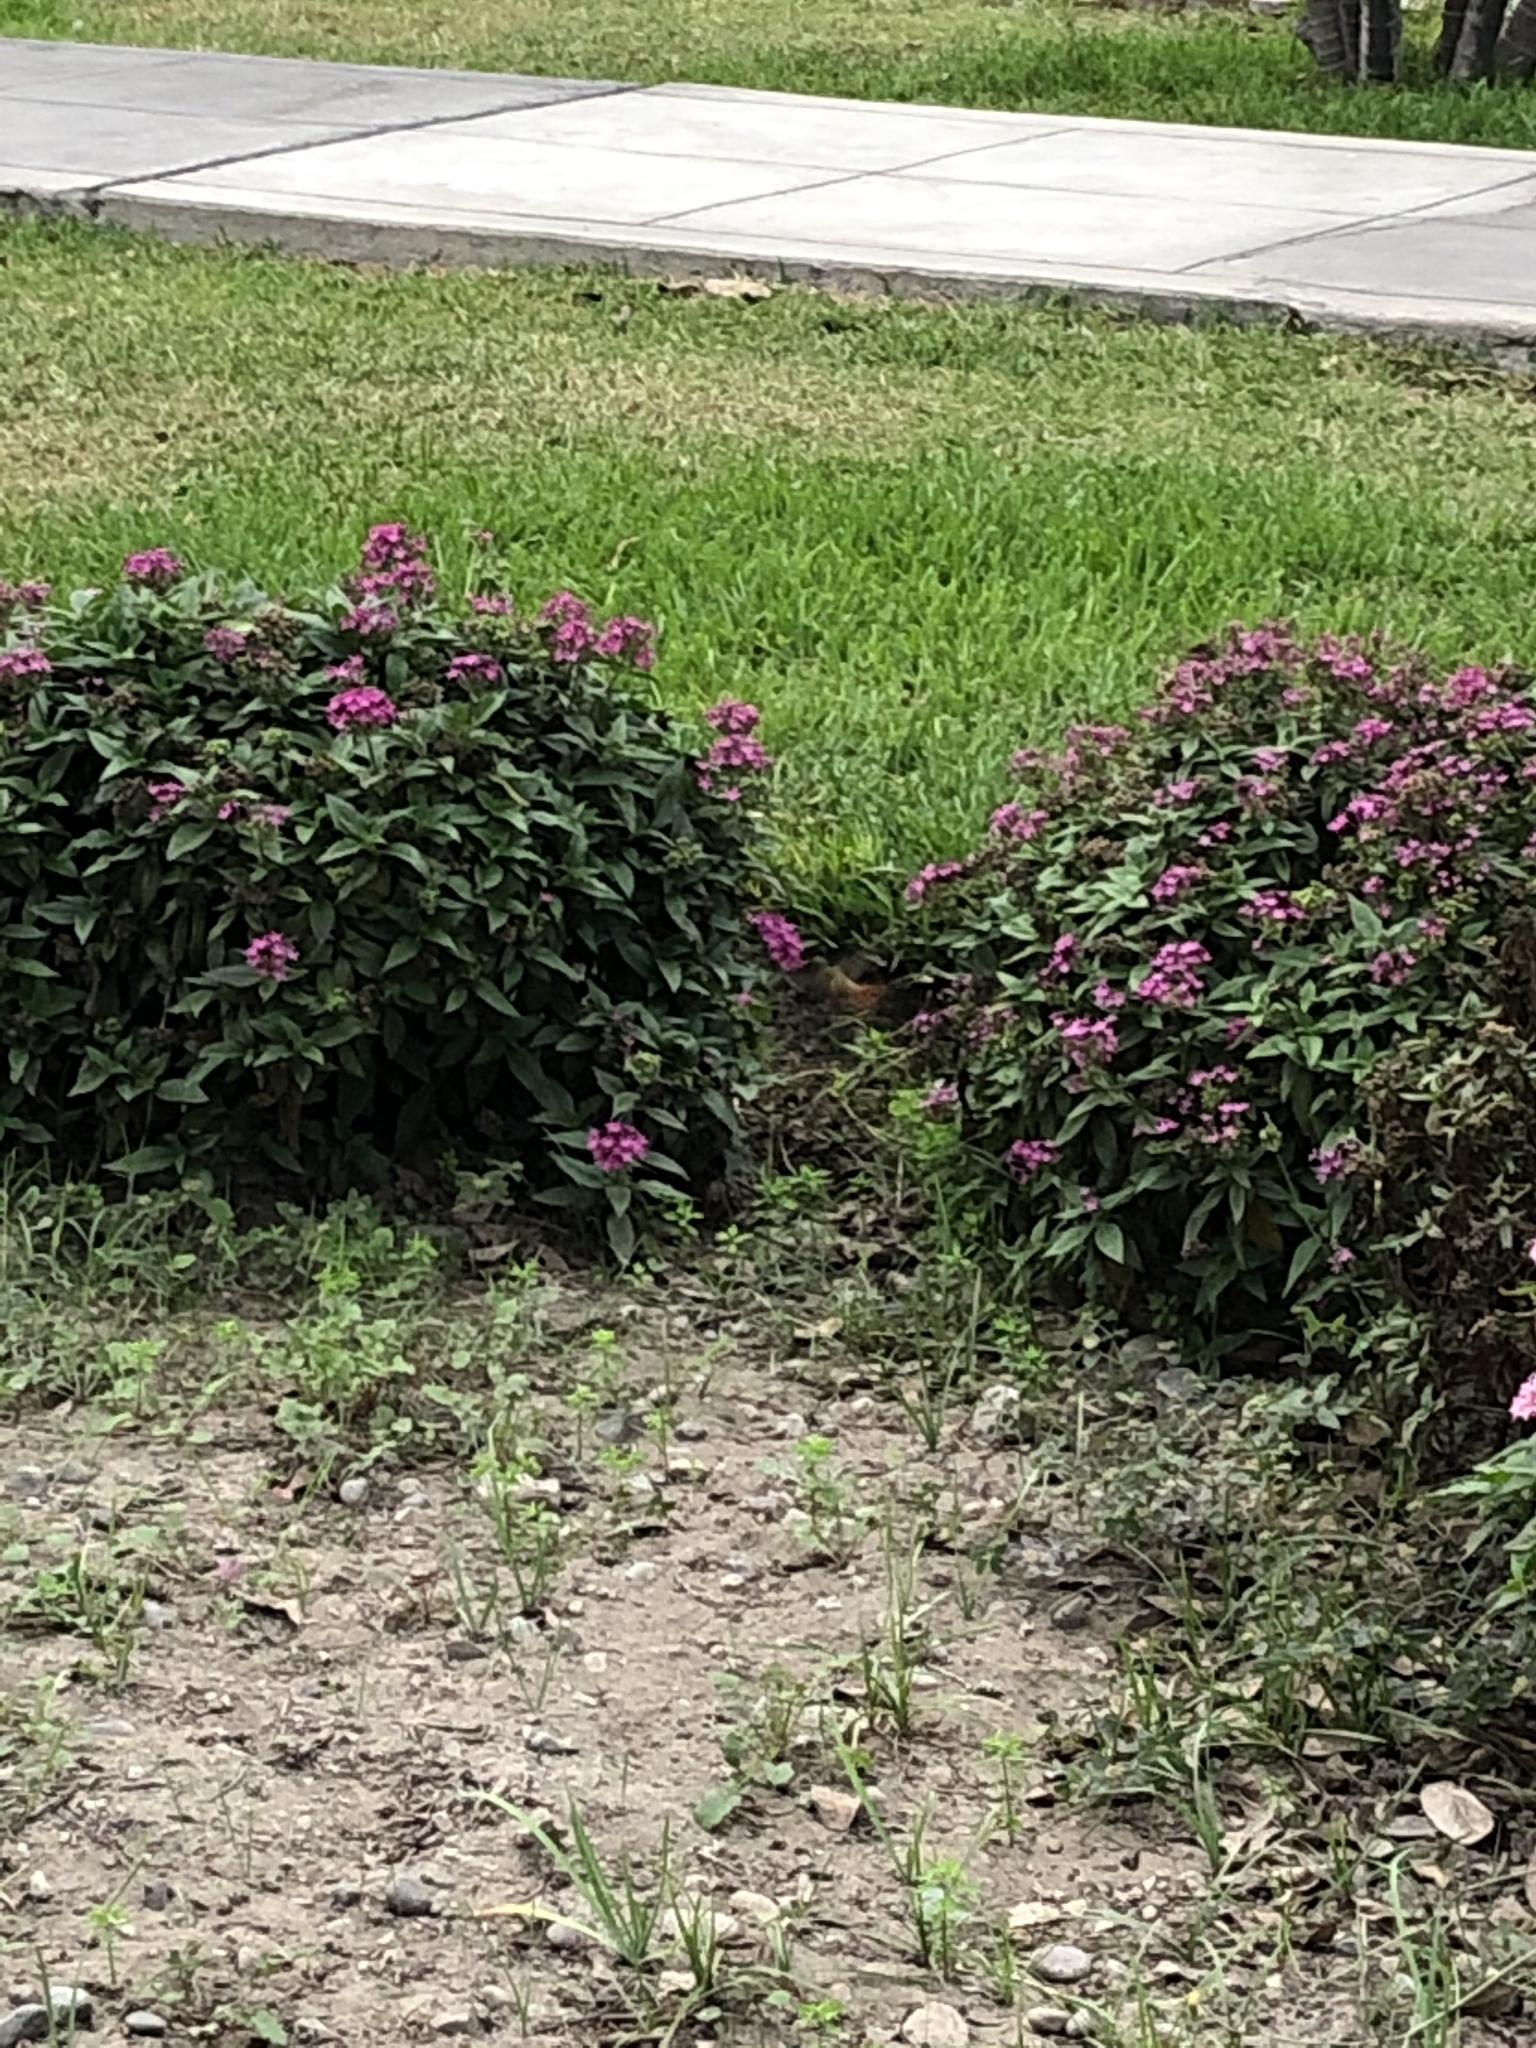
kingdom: Animalia
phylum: Chordata
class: Aves
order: Apodiformes
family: Trochilidae
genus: Amazilis
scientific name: Amazilis amazilia
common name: Amazilia hummingbird
